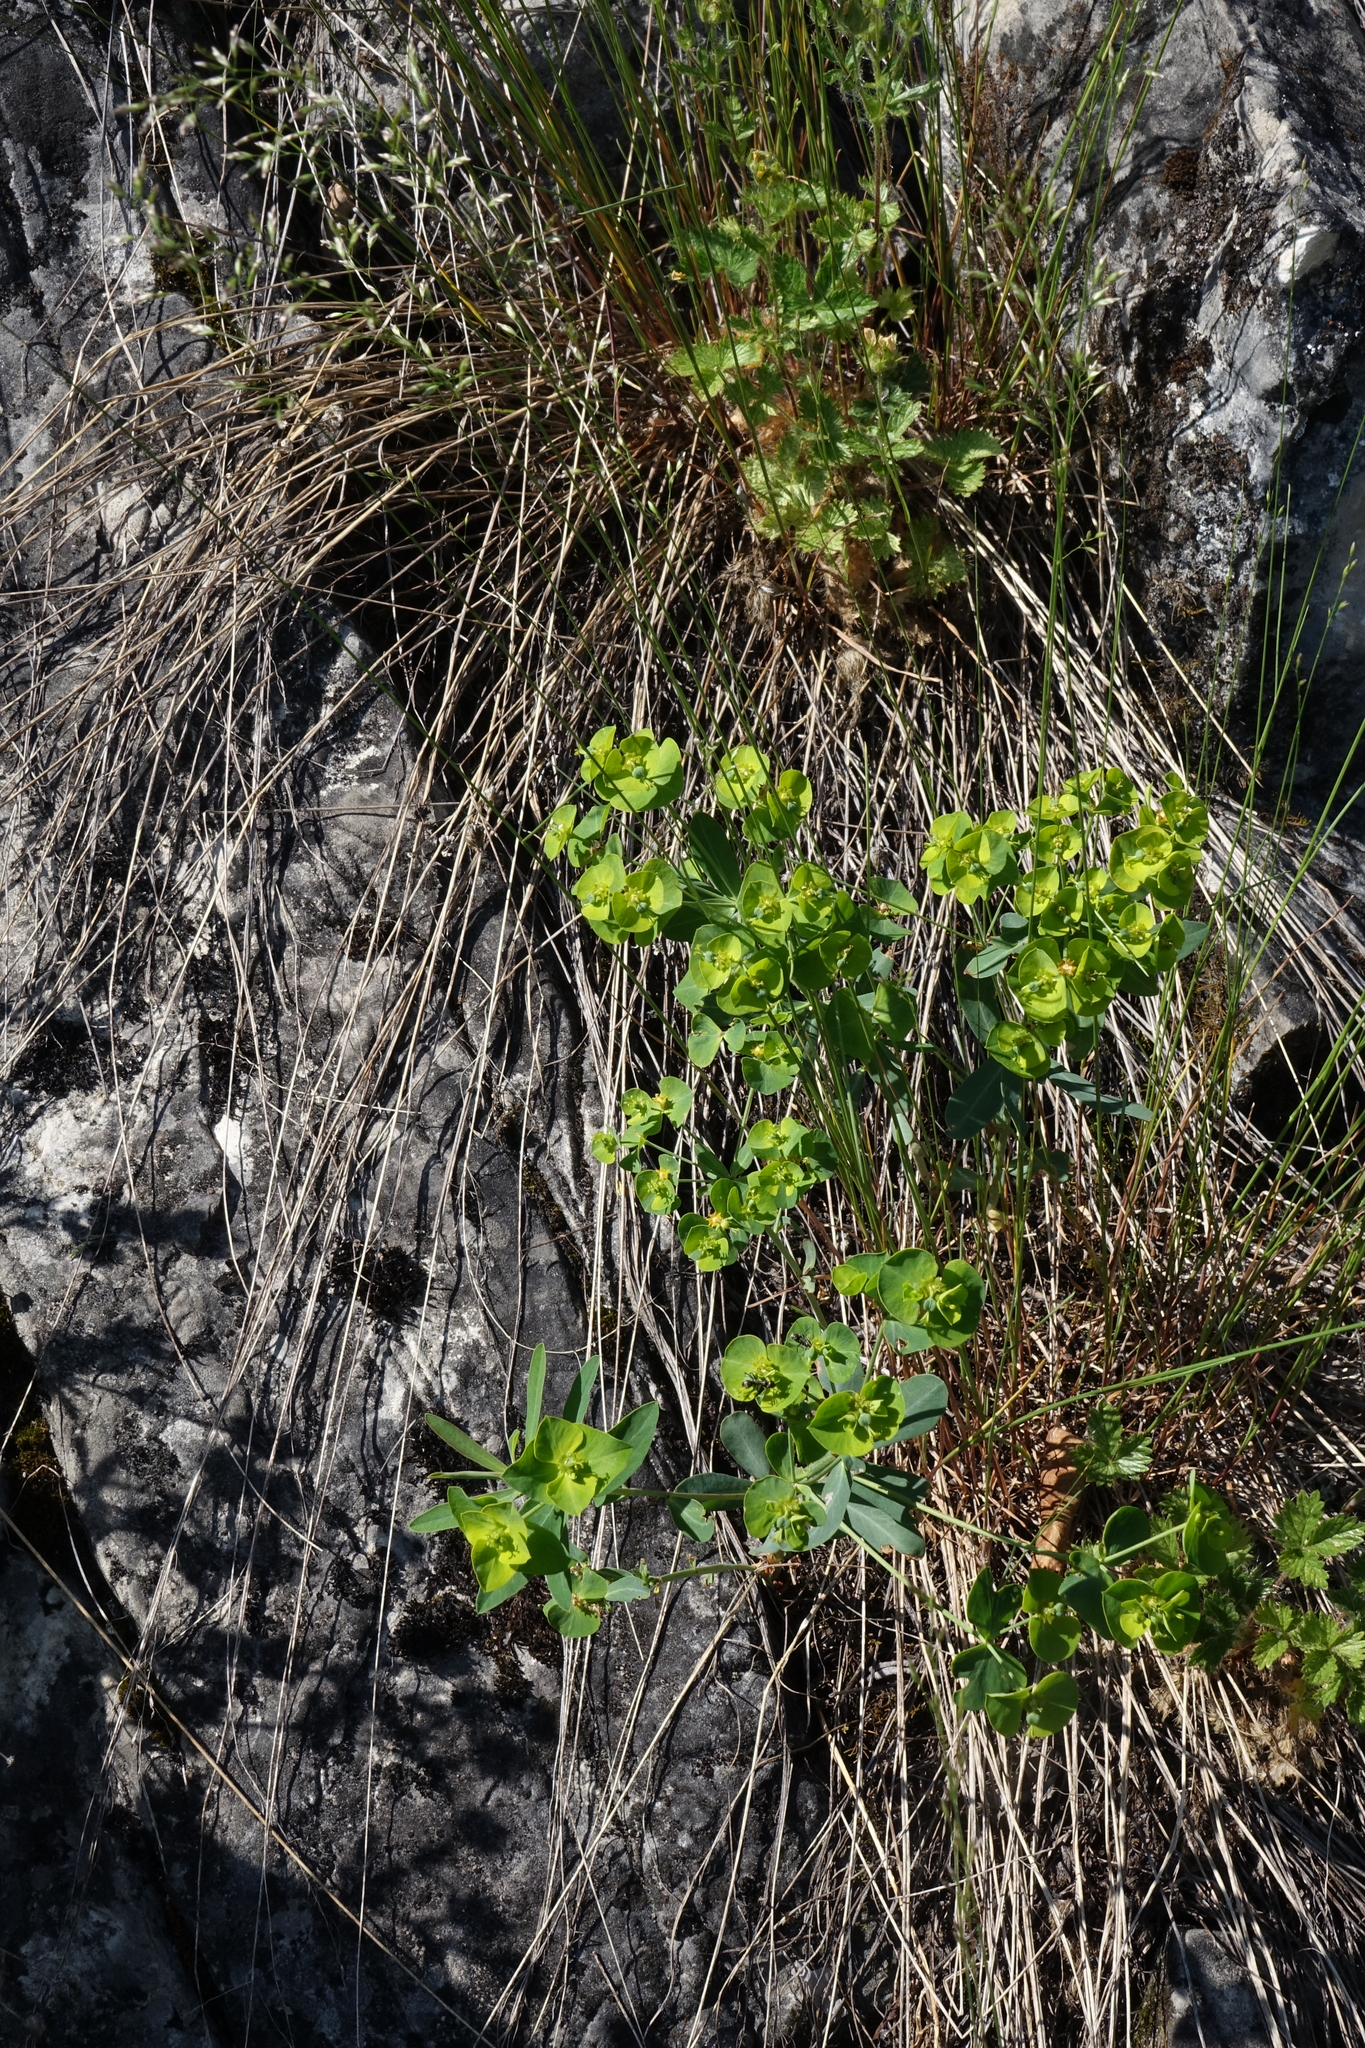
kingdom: Plantae
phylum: Tracheophyta
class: Magnoliopsida
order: Malpighiales
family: Euphorbiaceae
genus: Euphorbia
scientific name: Euphorbia borealis
